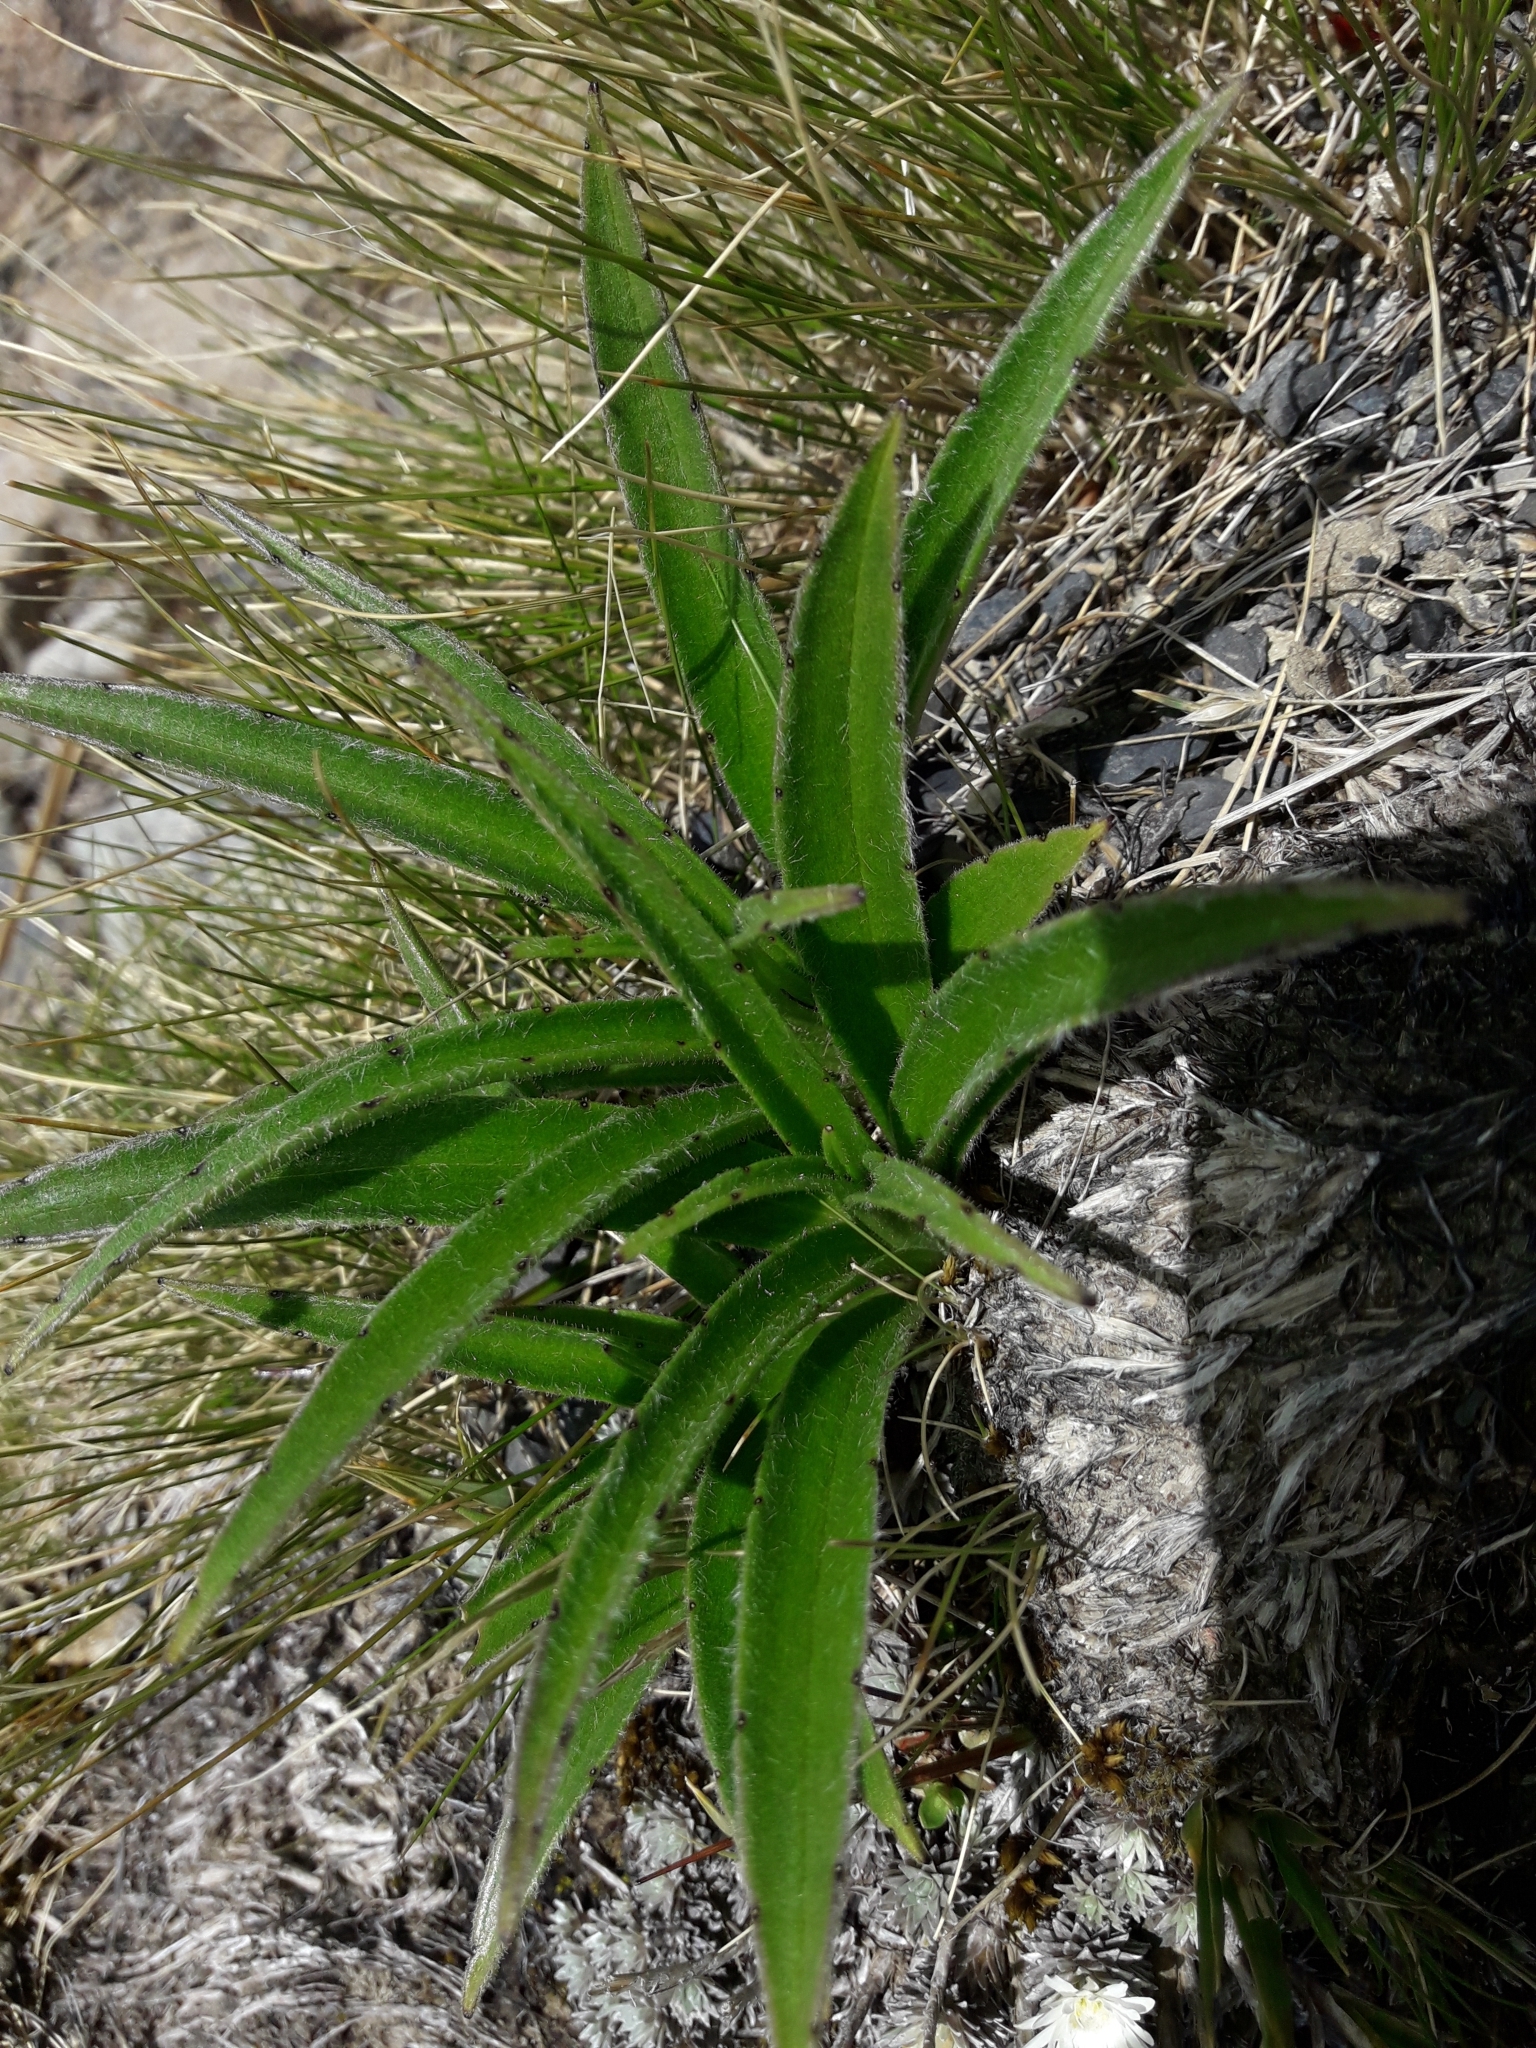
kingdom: Plantae
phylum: Tracheophyta
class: Magnoliopsida
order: Asterales
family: Asteraceae
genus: Dolichoglottis
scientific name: Dolichoglottis scorzoneroides
